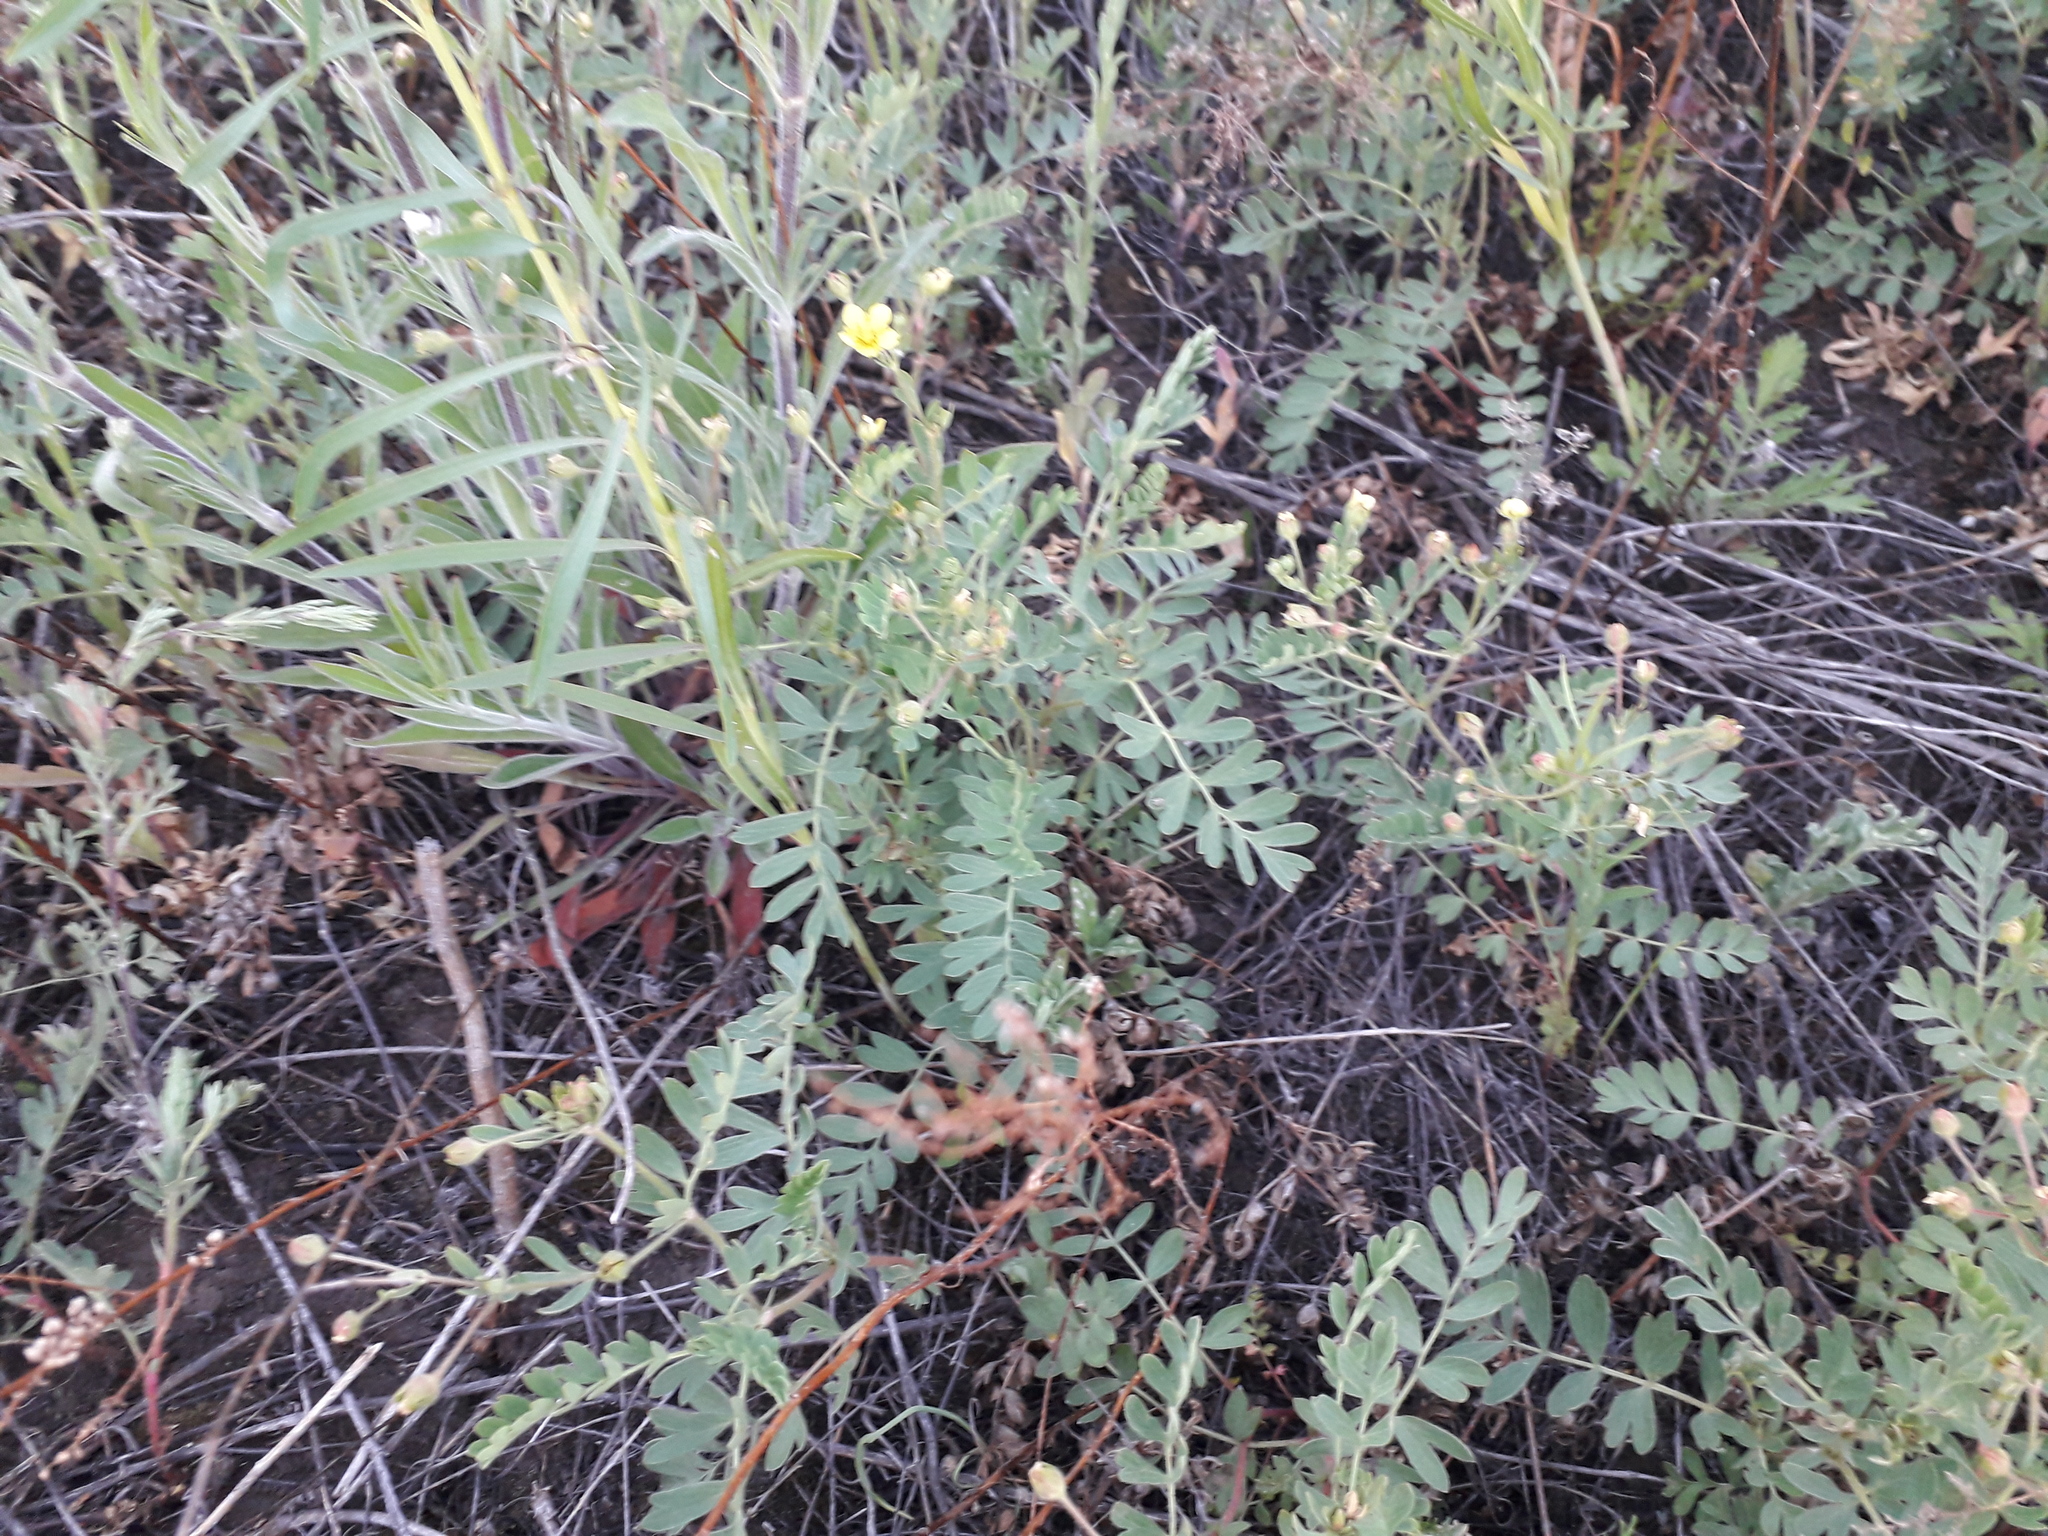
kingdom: Plantae
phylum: Tracheophyta
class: Magnoliopsida
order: Rosales
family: Rosaceae
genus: Sibbaldianthe
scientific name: Sibbaldianthe bifurca
